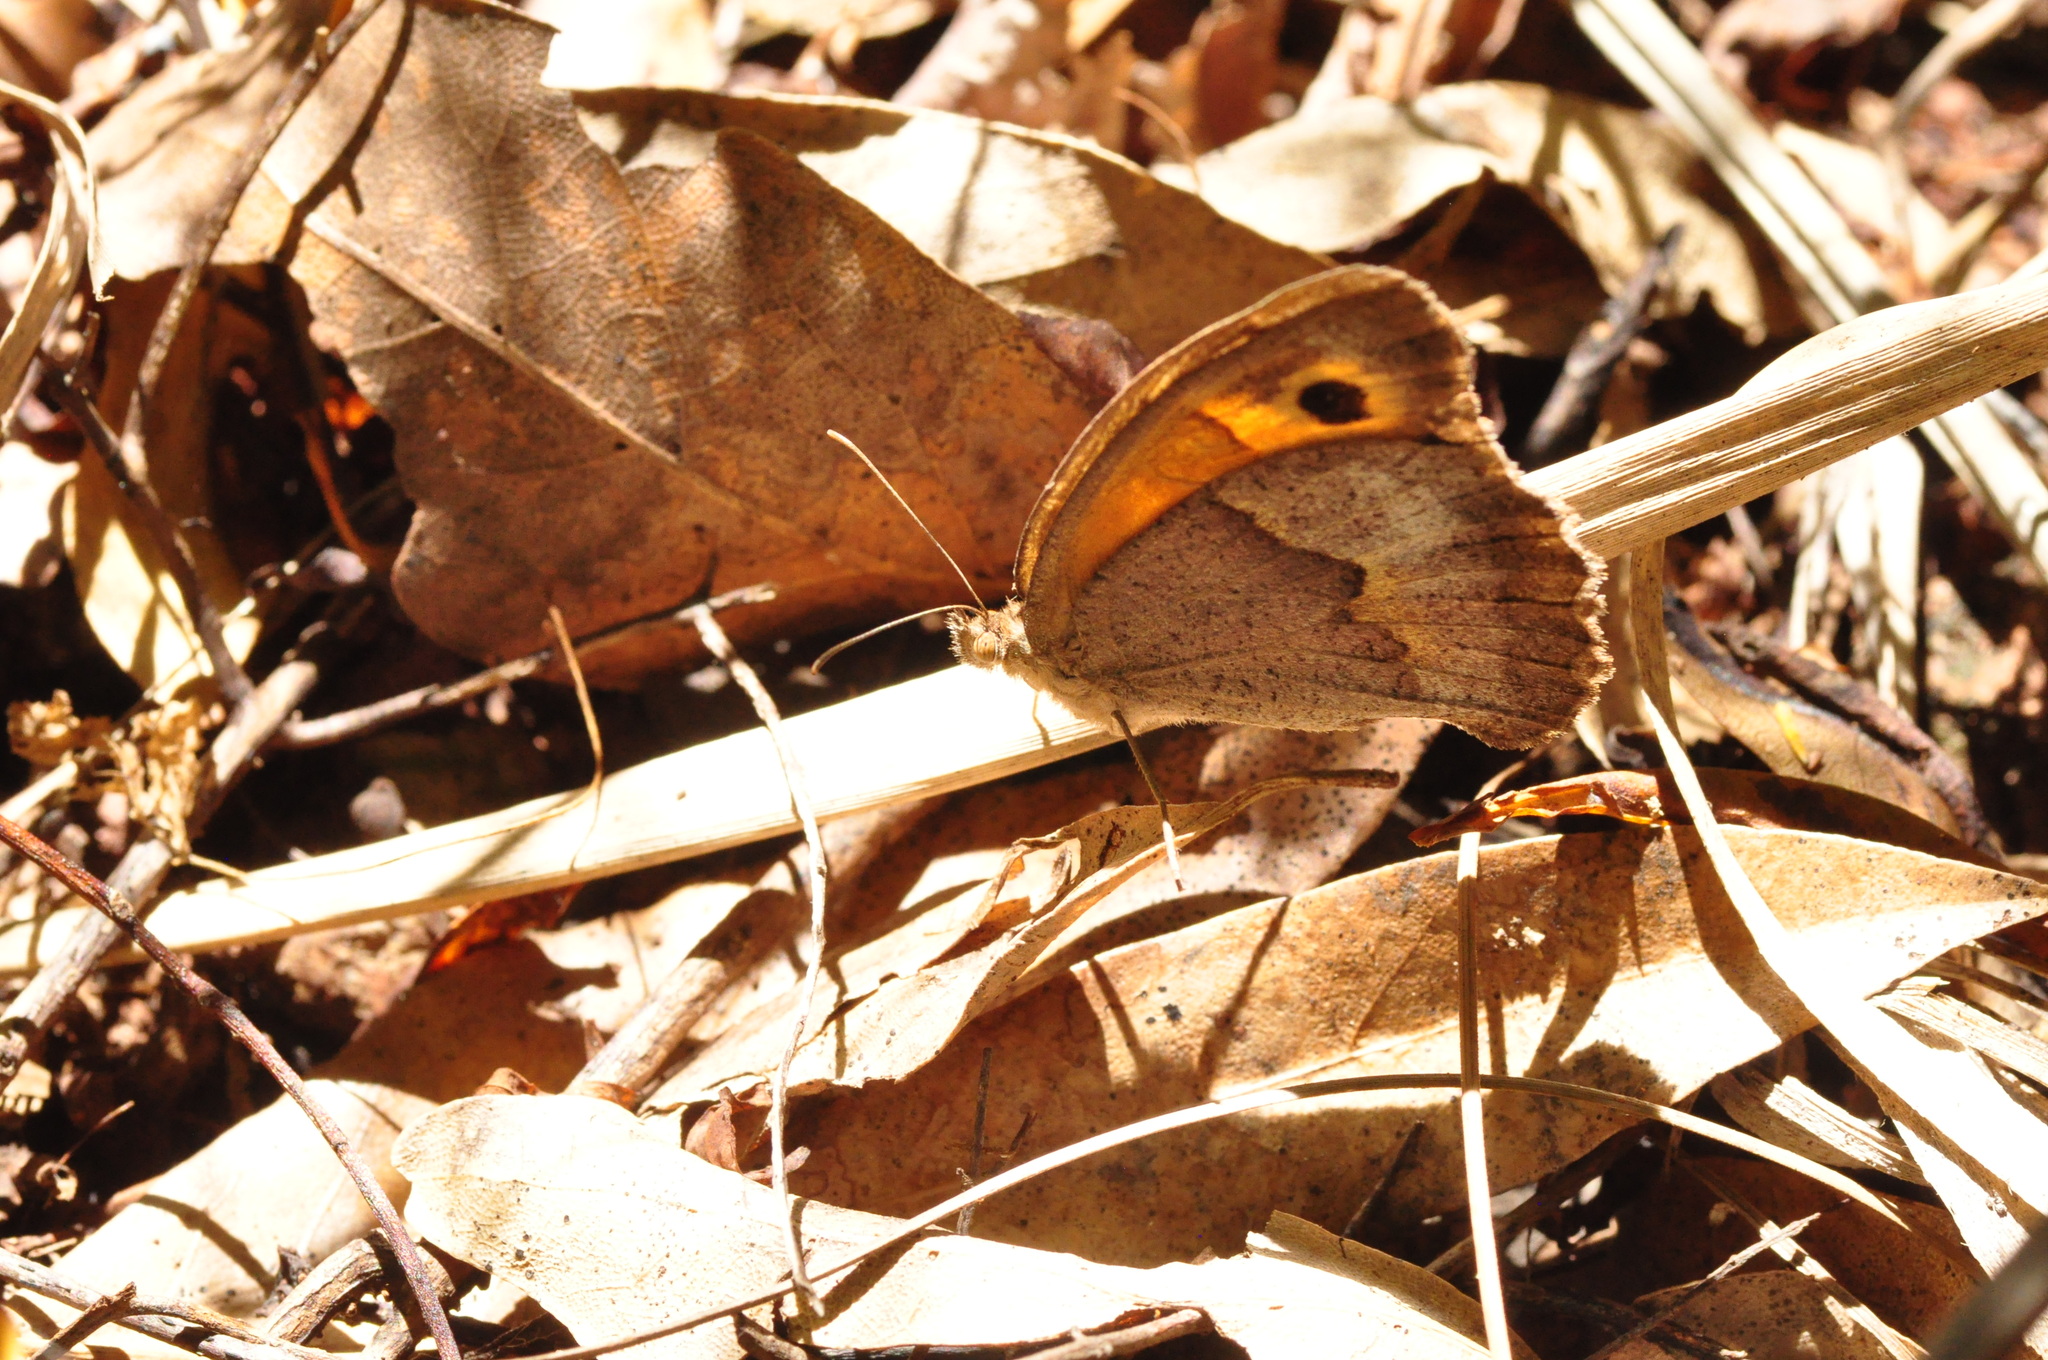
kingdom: Animalia
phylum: Arthropoda
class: Insecta
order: Lepidoptera
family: Nymphalidae
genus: Maniola
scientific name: Maniola jurtina
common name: Meadow brown
